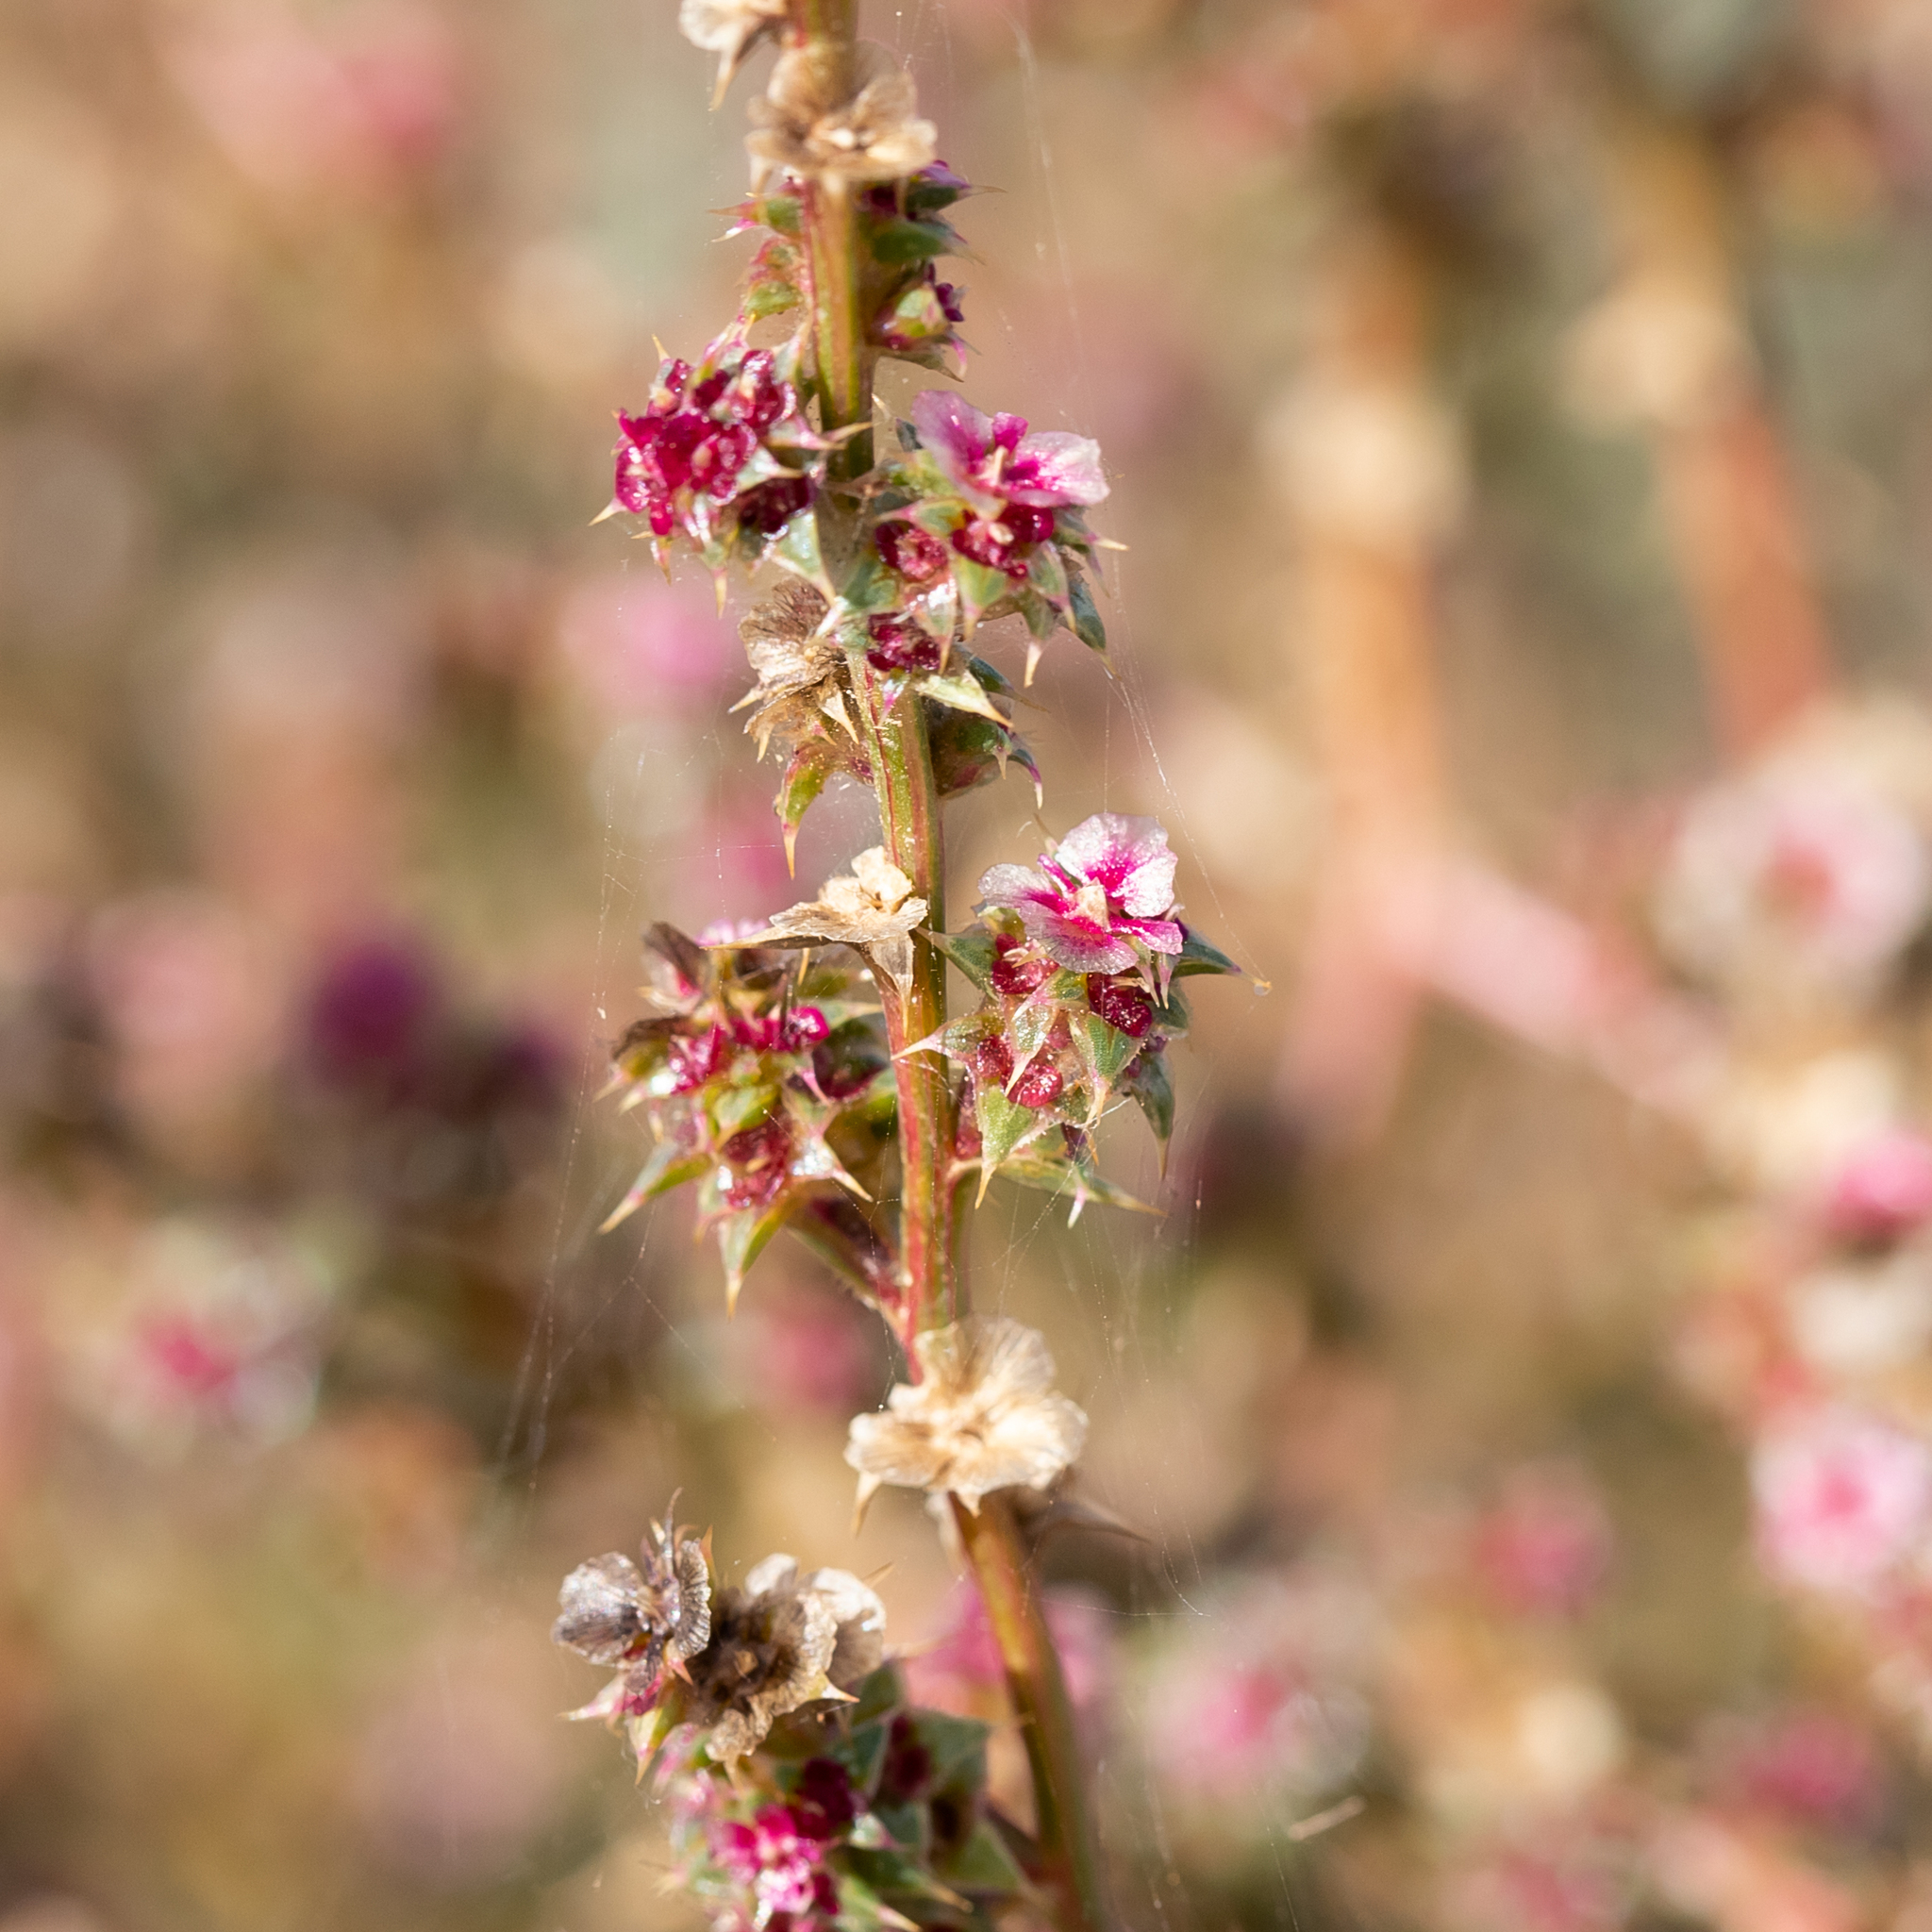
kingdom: Plantae
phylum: Tracheophyta
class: Magnoliopsida
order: Caryophyllales
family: Amaranthaceae
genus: Salsola
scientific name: Salsola australis
